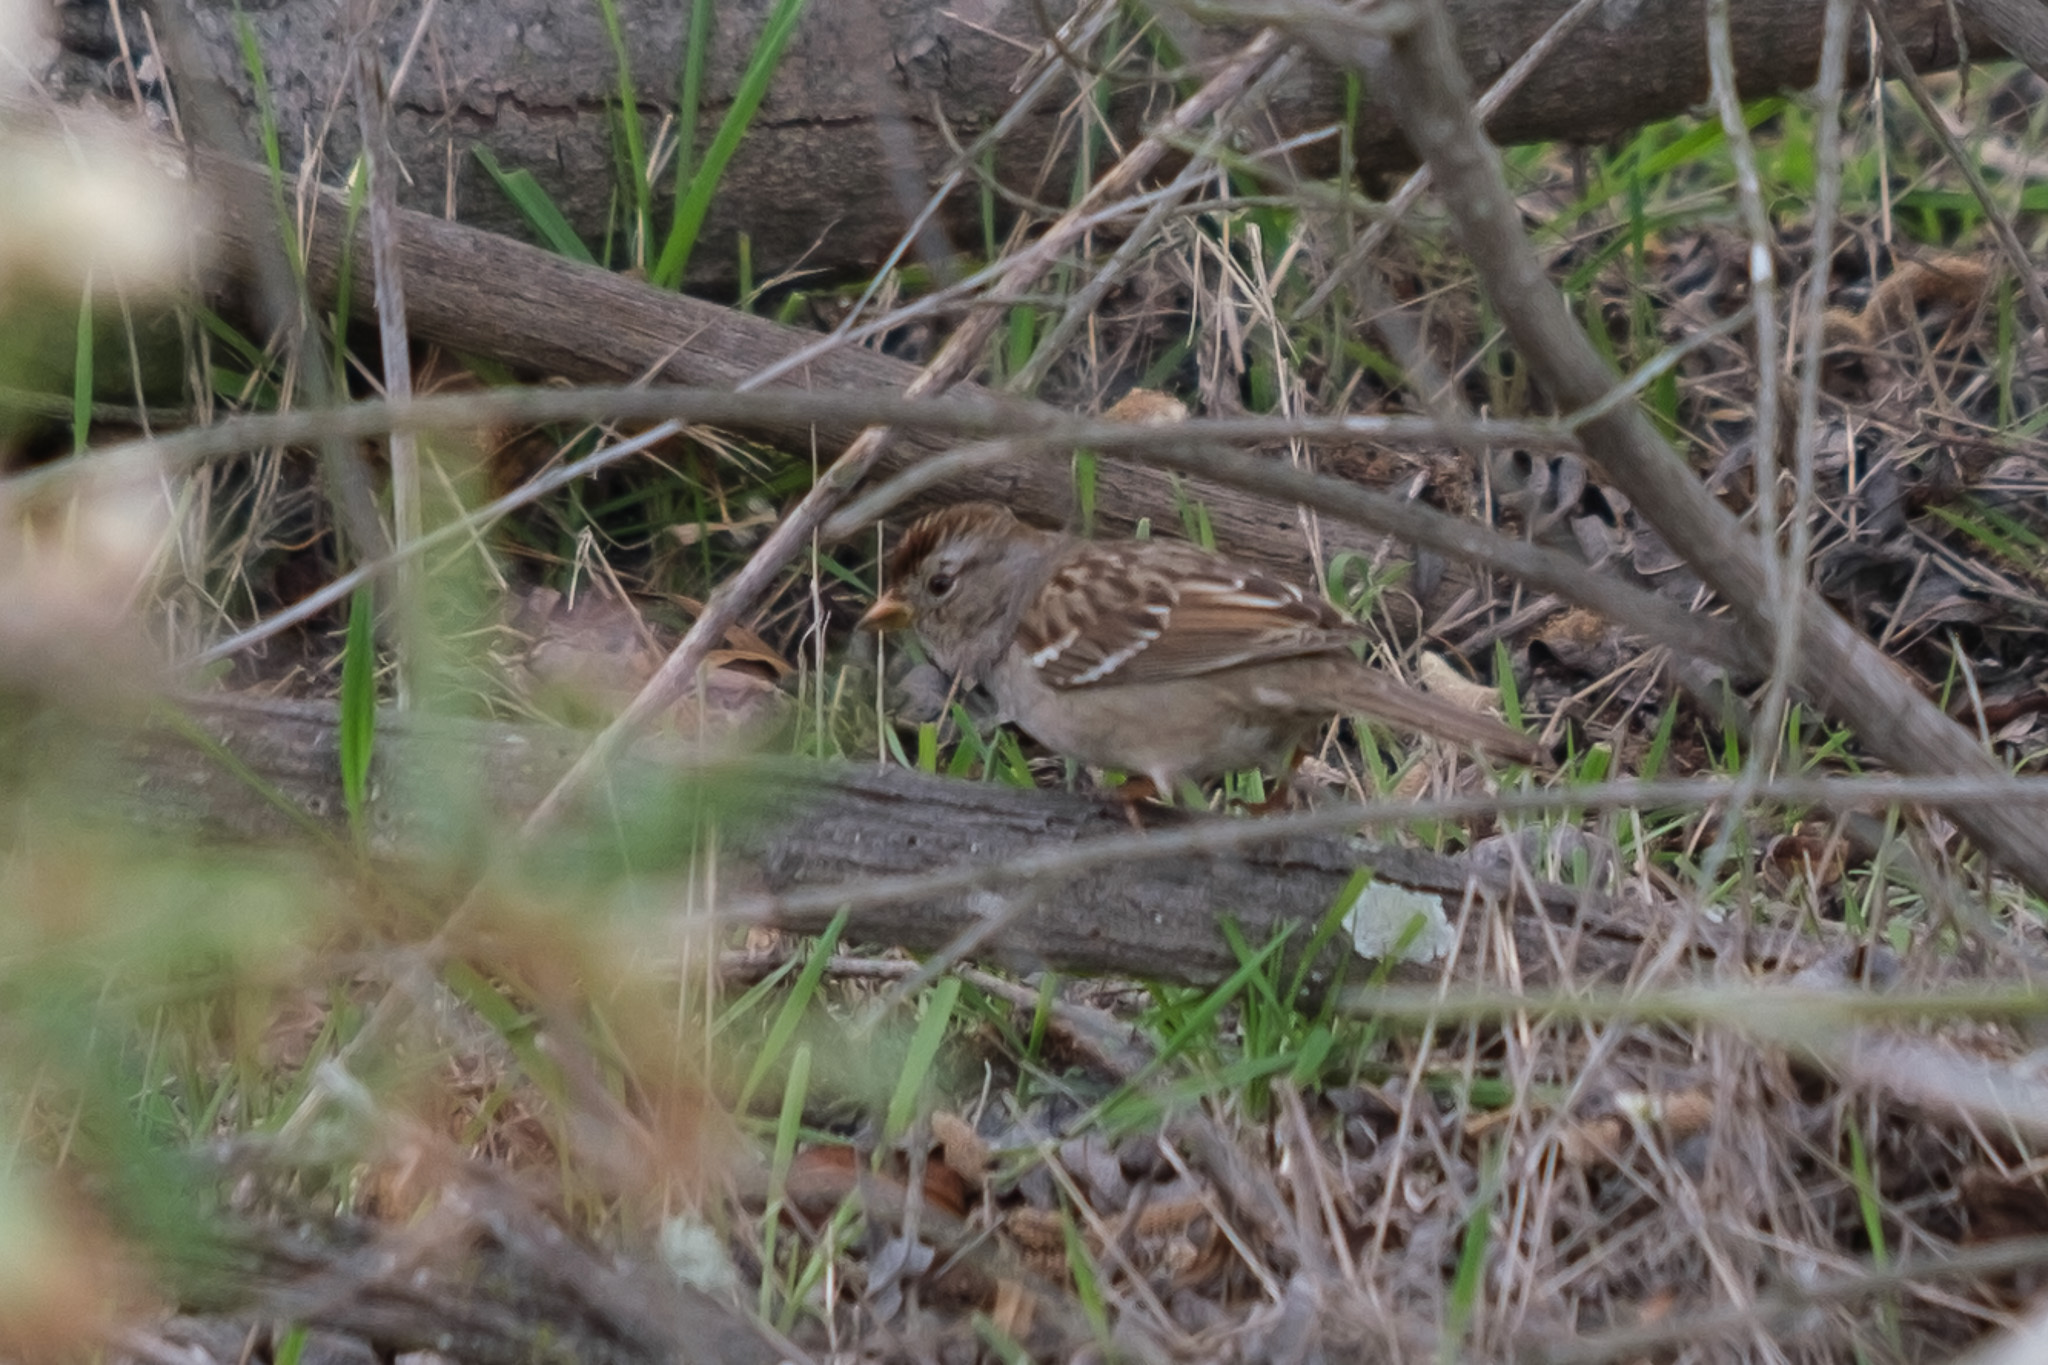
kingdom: Animalia
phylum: Chordata
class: Aves
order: Passeriformes
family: Passerellidae
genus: Zonotrichia
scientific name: Zonotrichia leucophrys
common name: White-crowned sparrow
